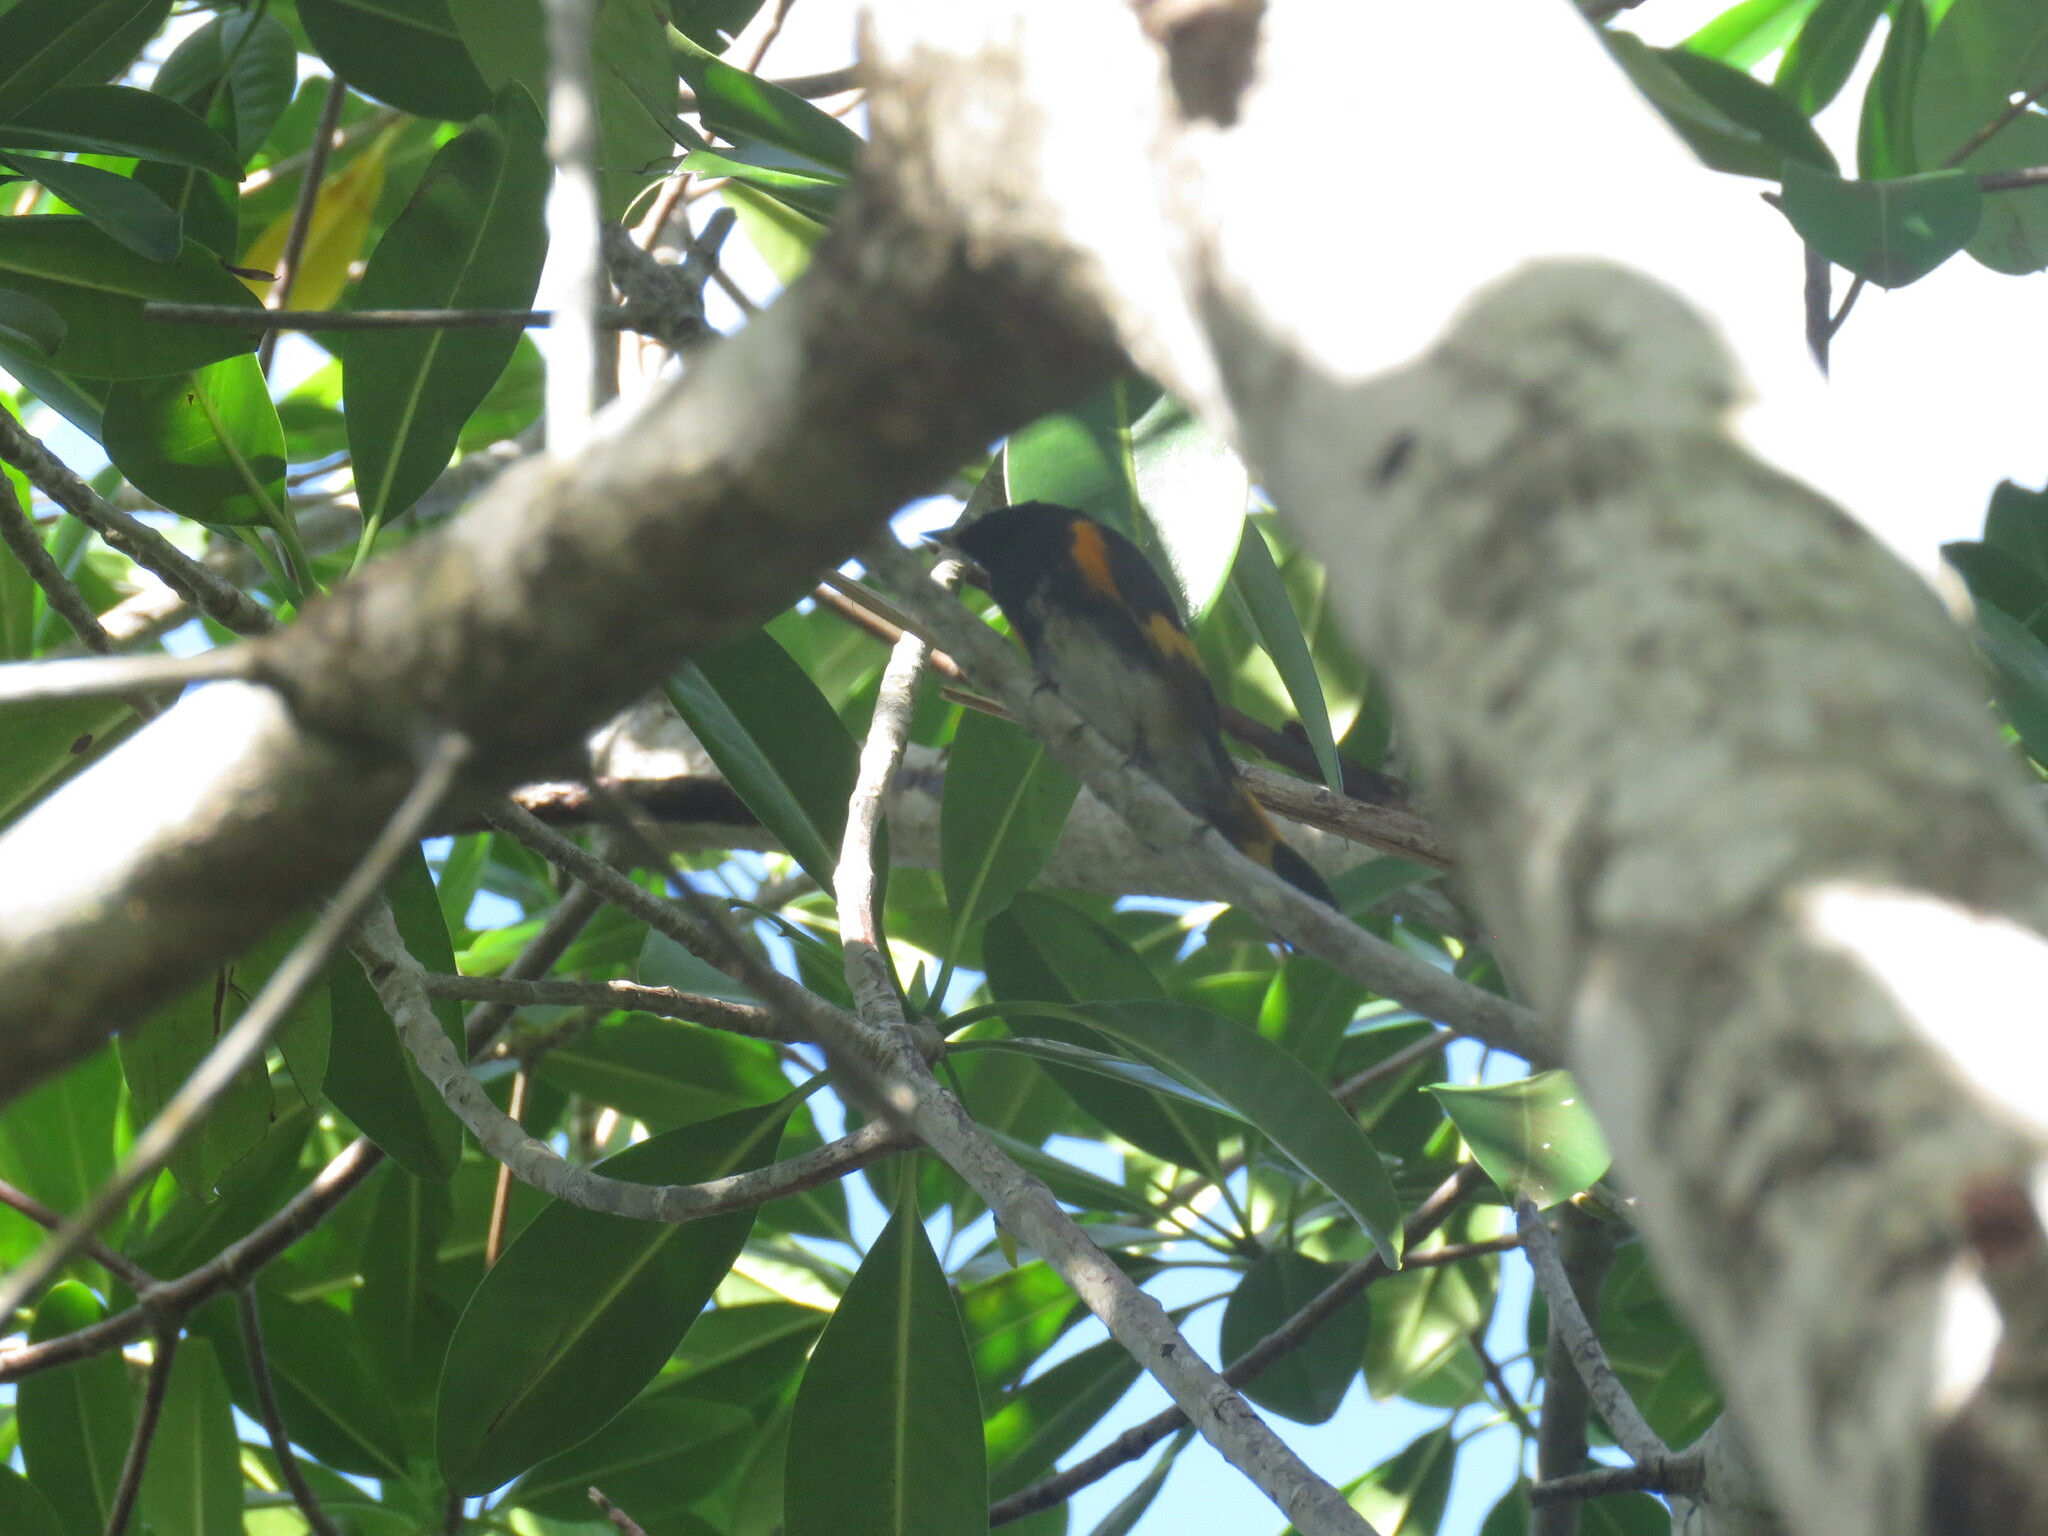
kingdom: Animalia
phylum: Chordata
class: Aves
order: Passeriformes
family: Parulidae
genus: Setophaga
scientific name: Setophaga ruticilla
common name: American redstart
